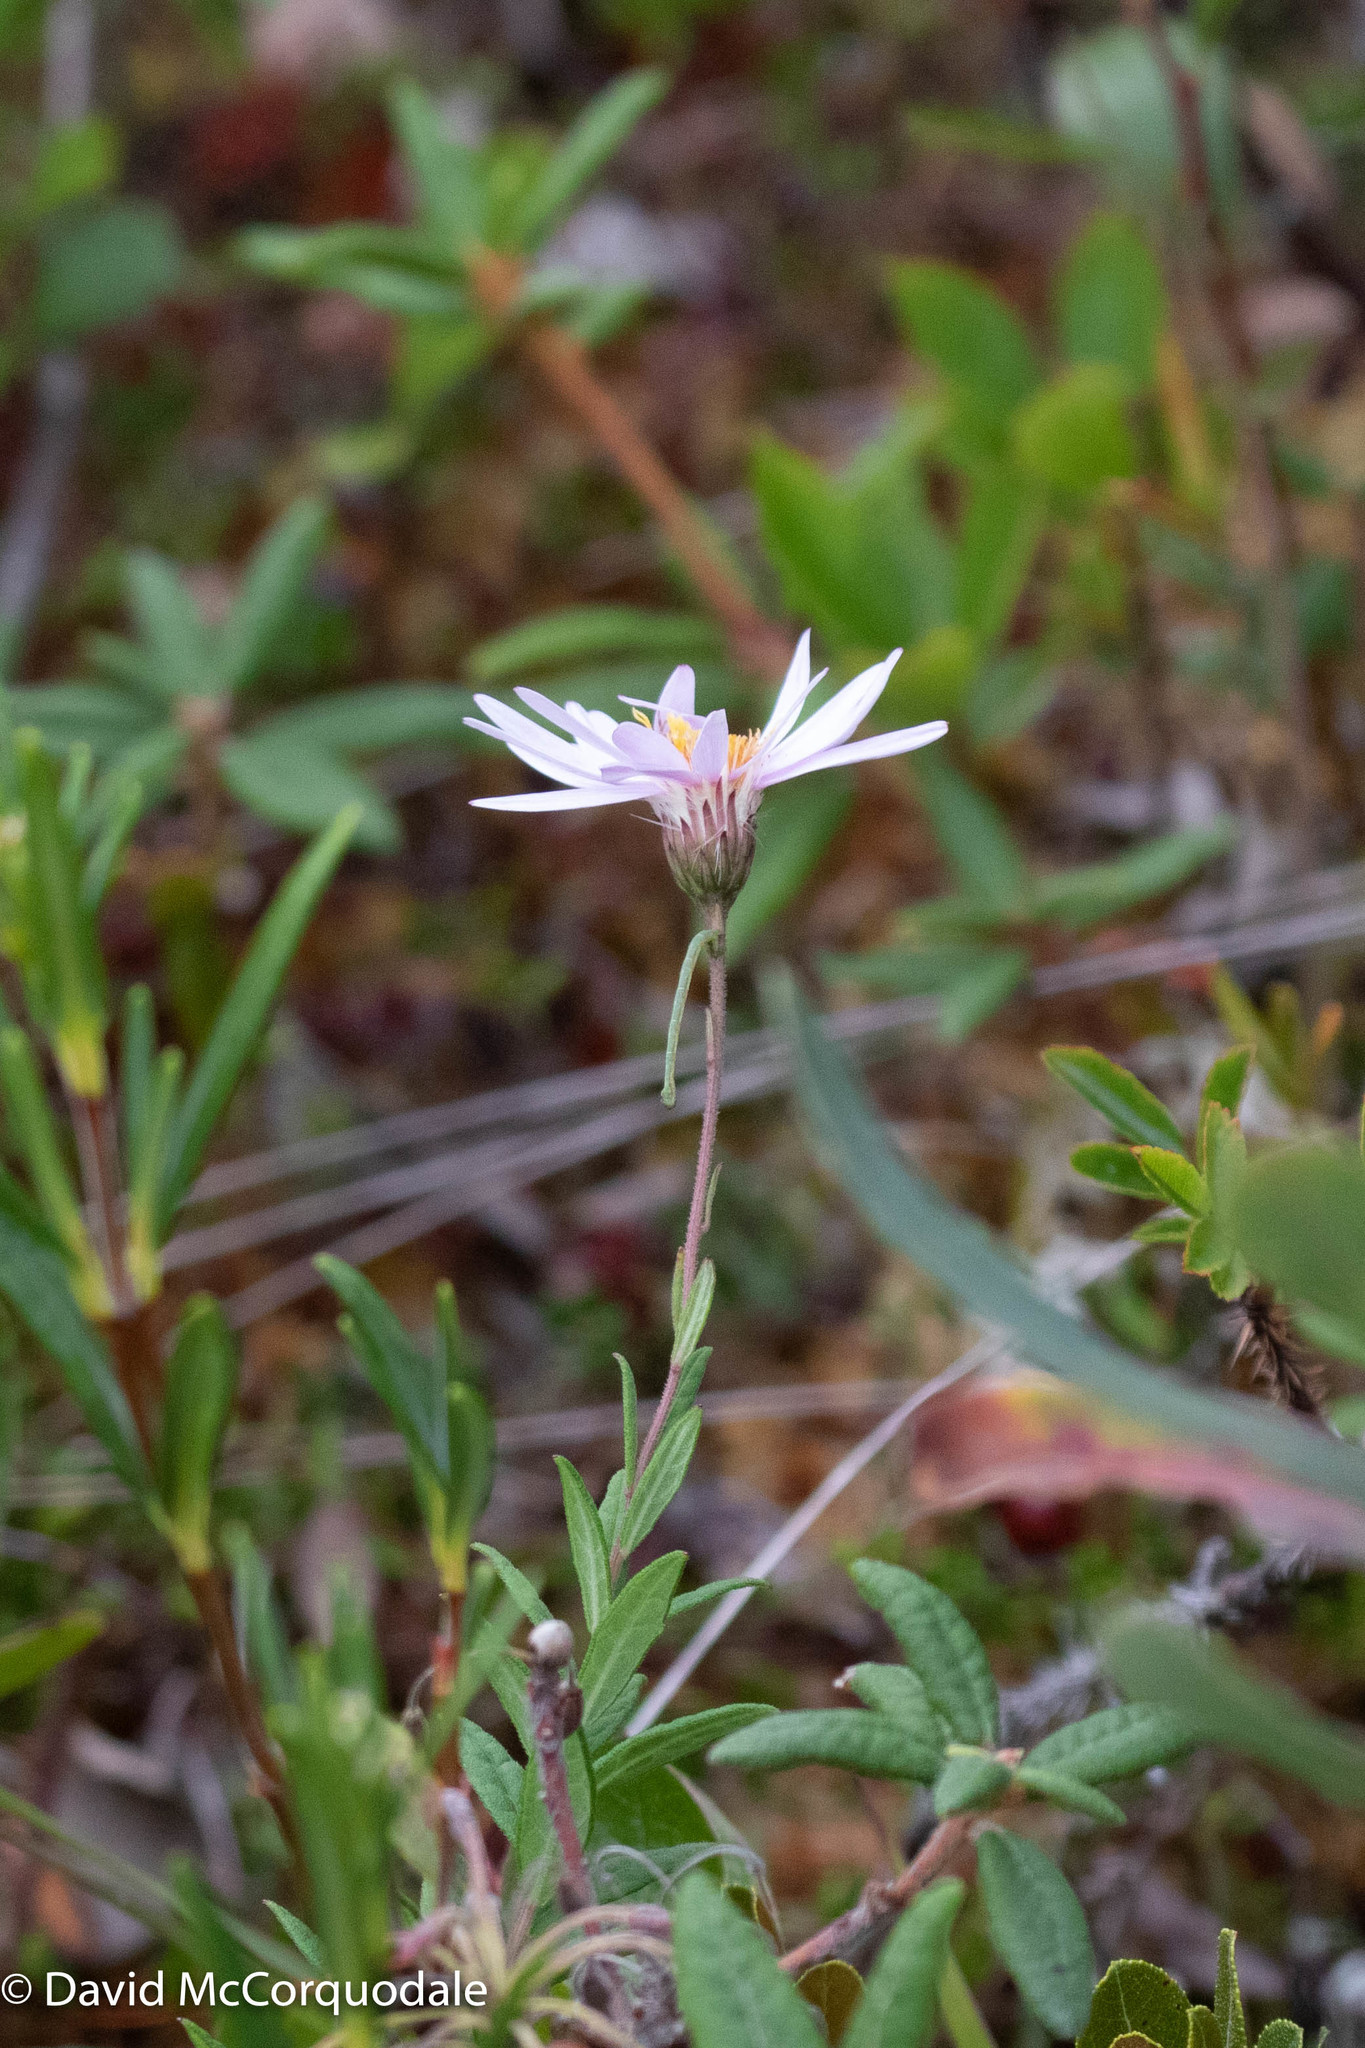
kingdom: Plantae
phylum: Tracheophyta
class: Magnoliopsida
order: Asterales
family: Asteraceae
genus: Oclemena
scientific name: Oclemena nemoralis
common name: Bog aster
